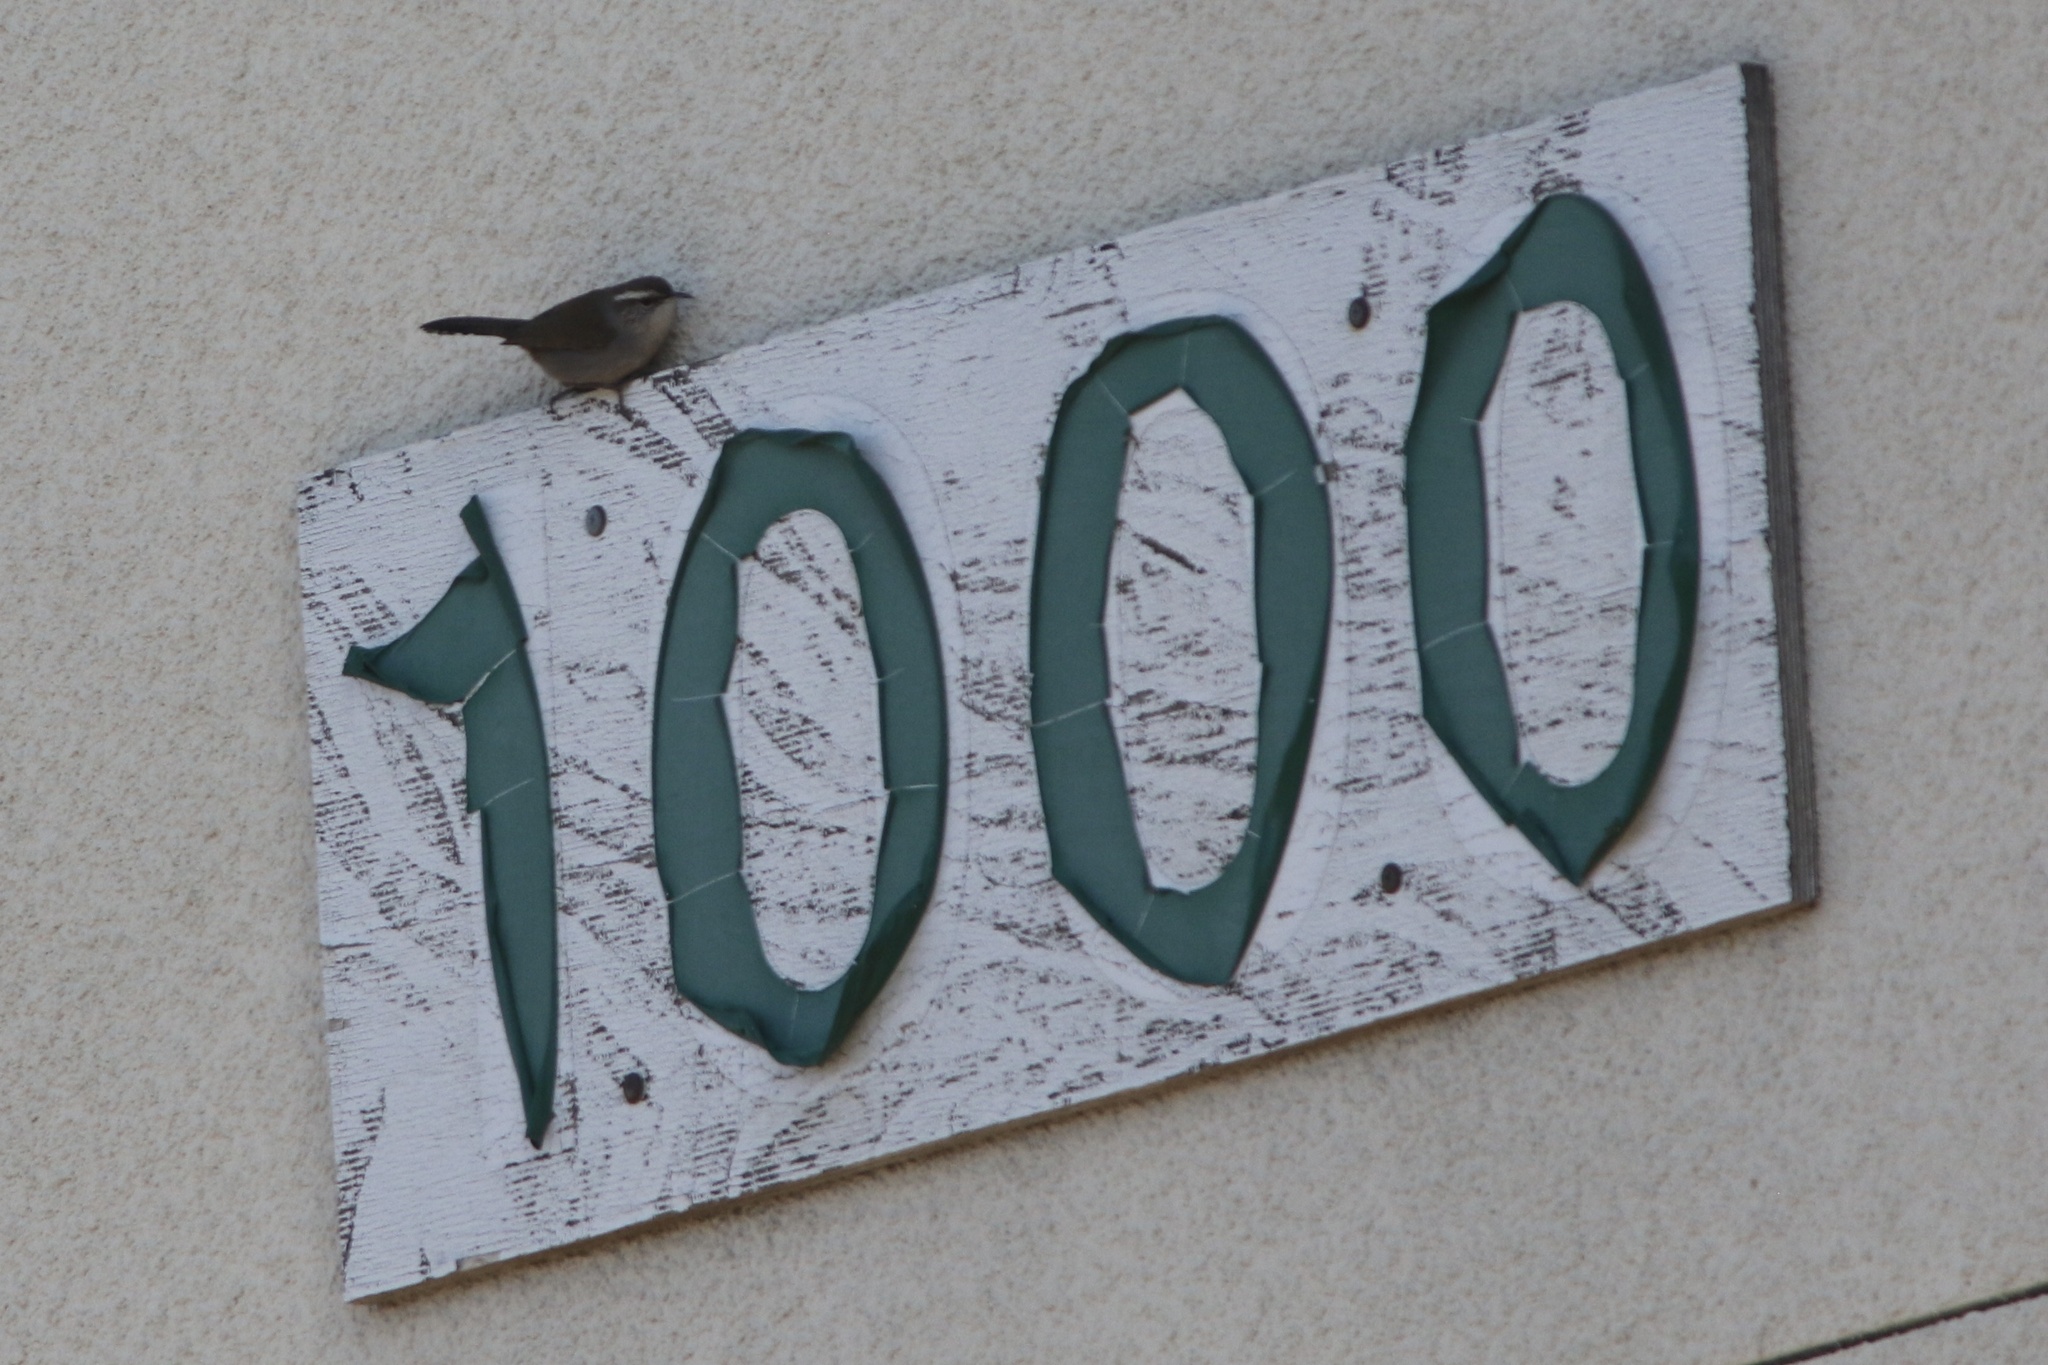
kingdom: Animalia
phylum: Chordata
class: Aves
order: Passeriformes
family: Troglodytidae
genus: Thryomanes
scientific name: Thryomanes bewickii
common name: Bewick's wren
